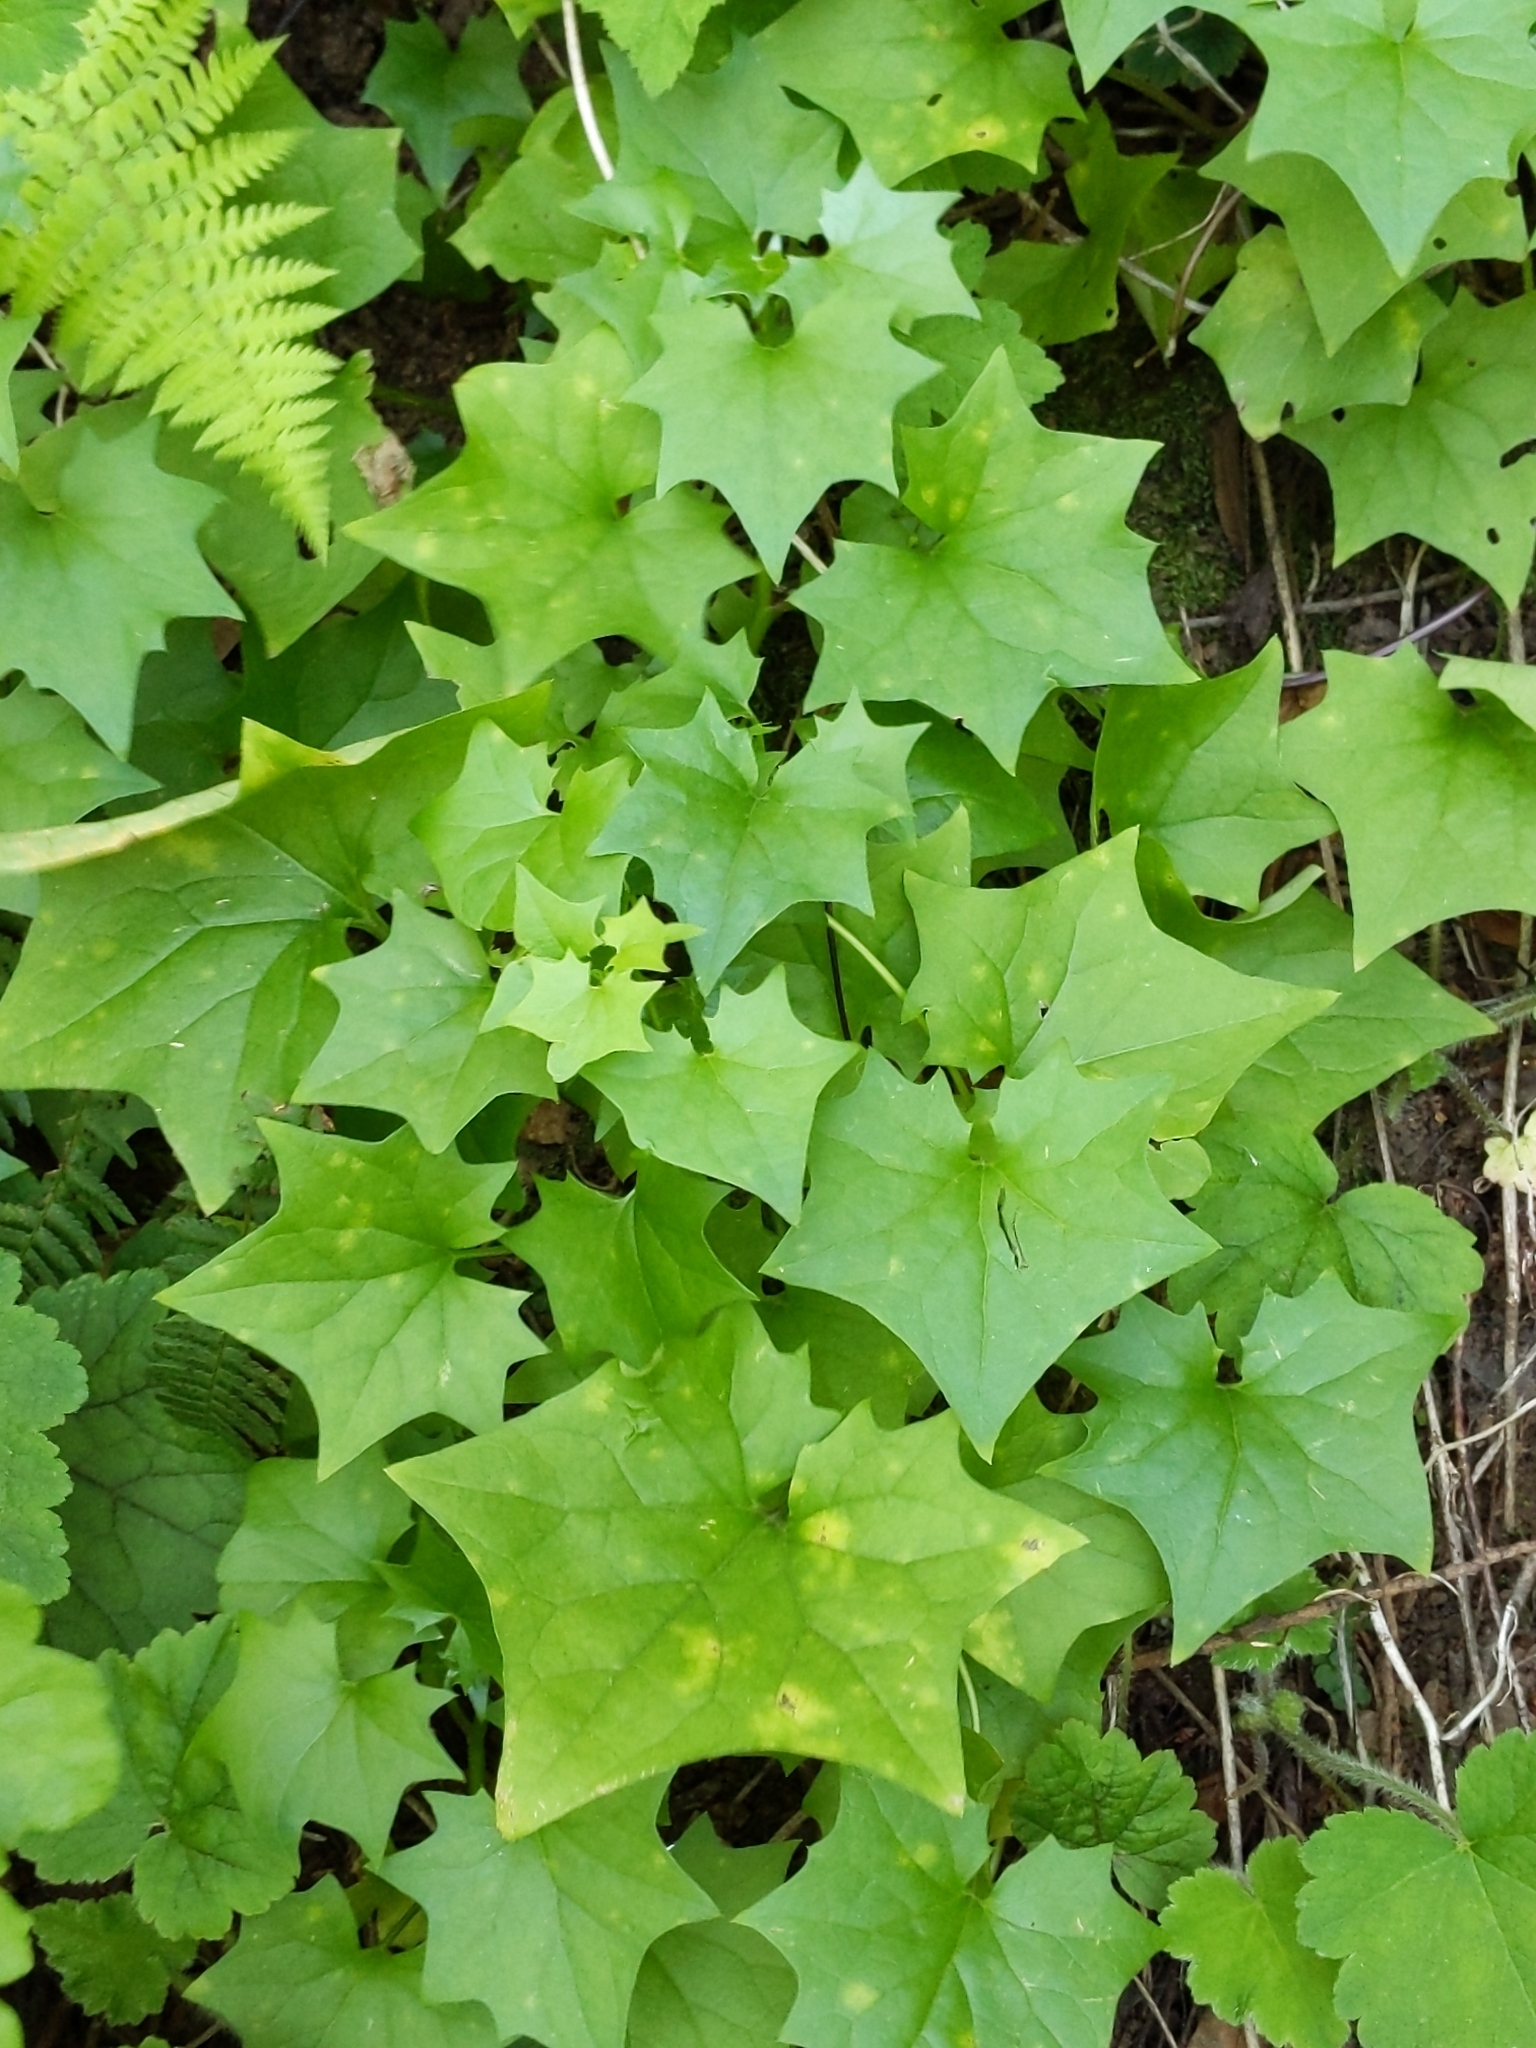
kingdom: Plantae
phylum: Tracheophyta
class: Magnoliopsida
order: Asterales
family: Asteraceae
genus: Delairea
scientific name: Delairea odorata
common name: Cape-ivy
